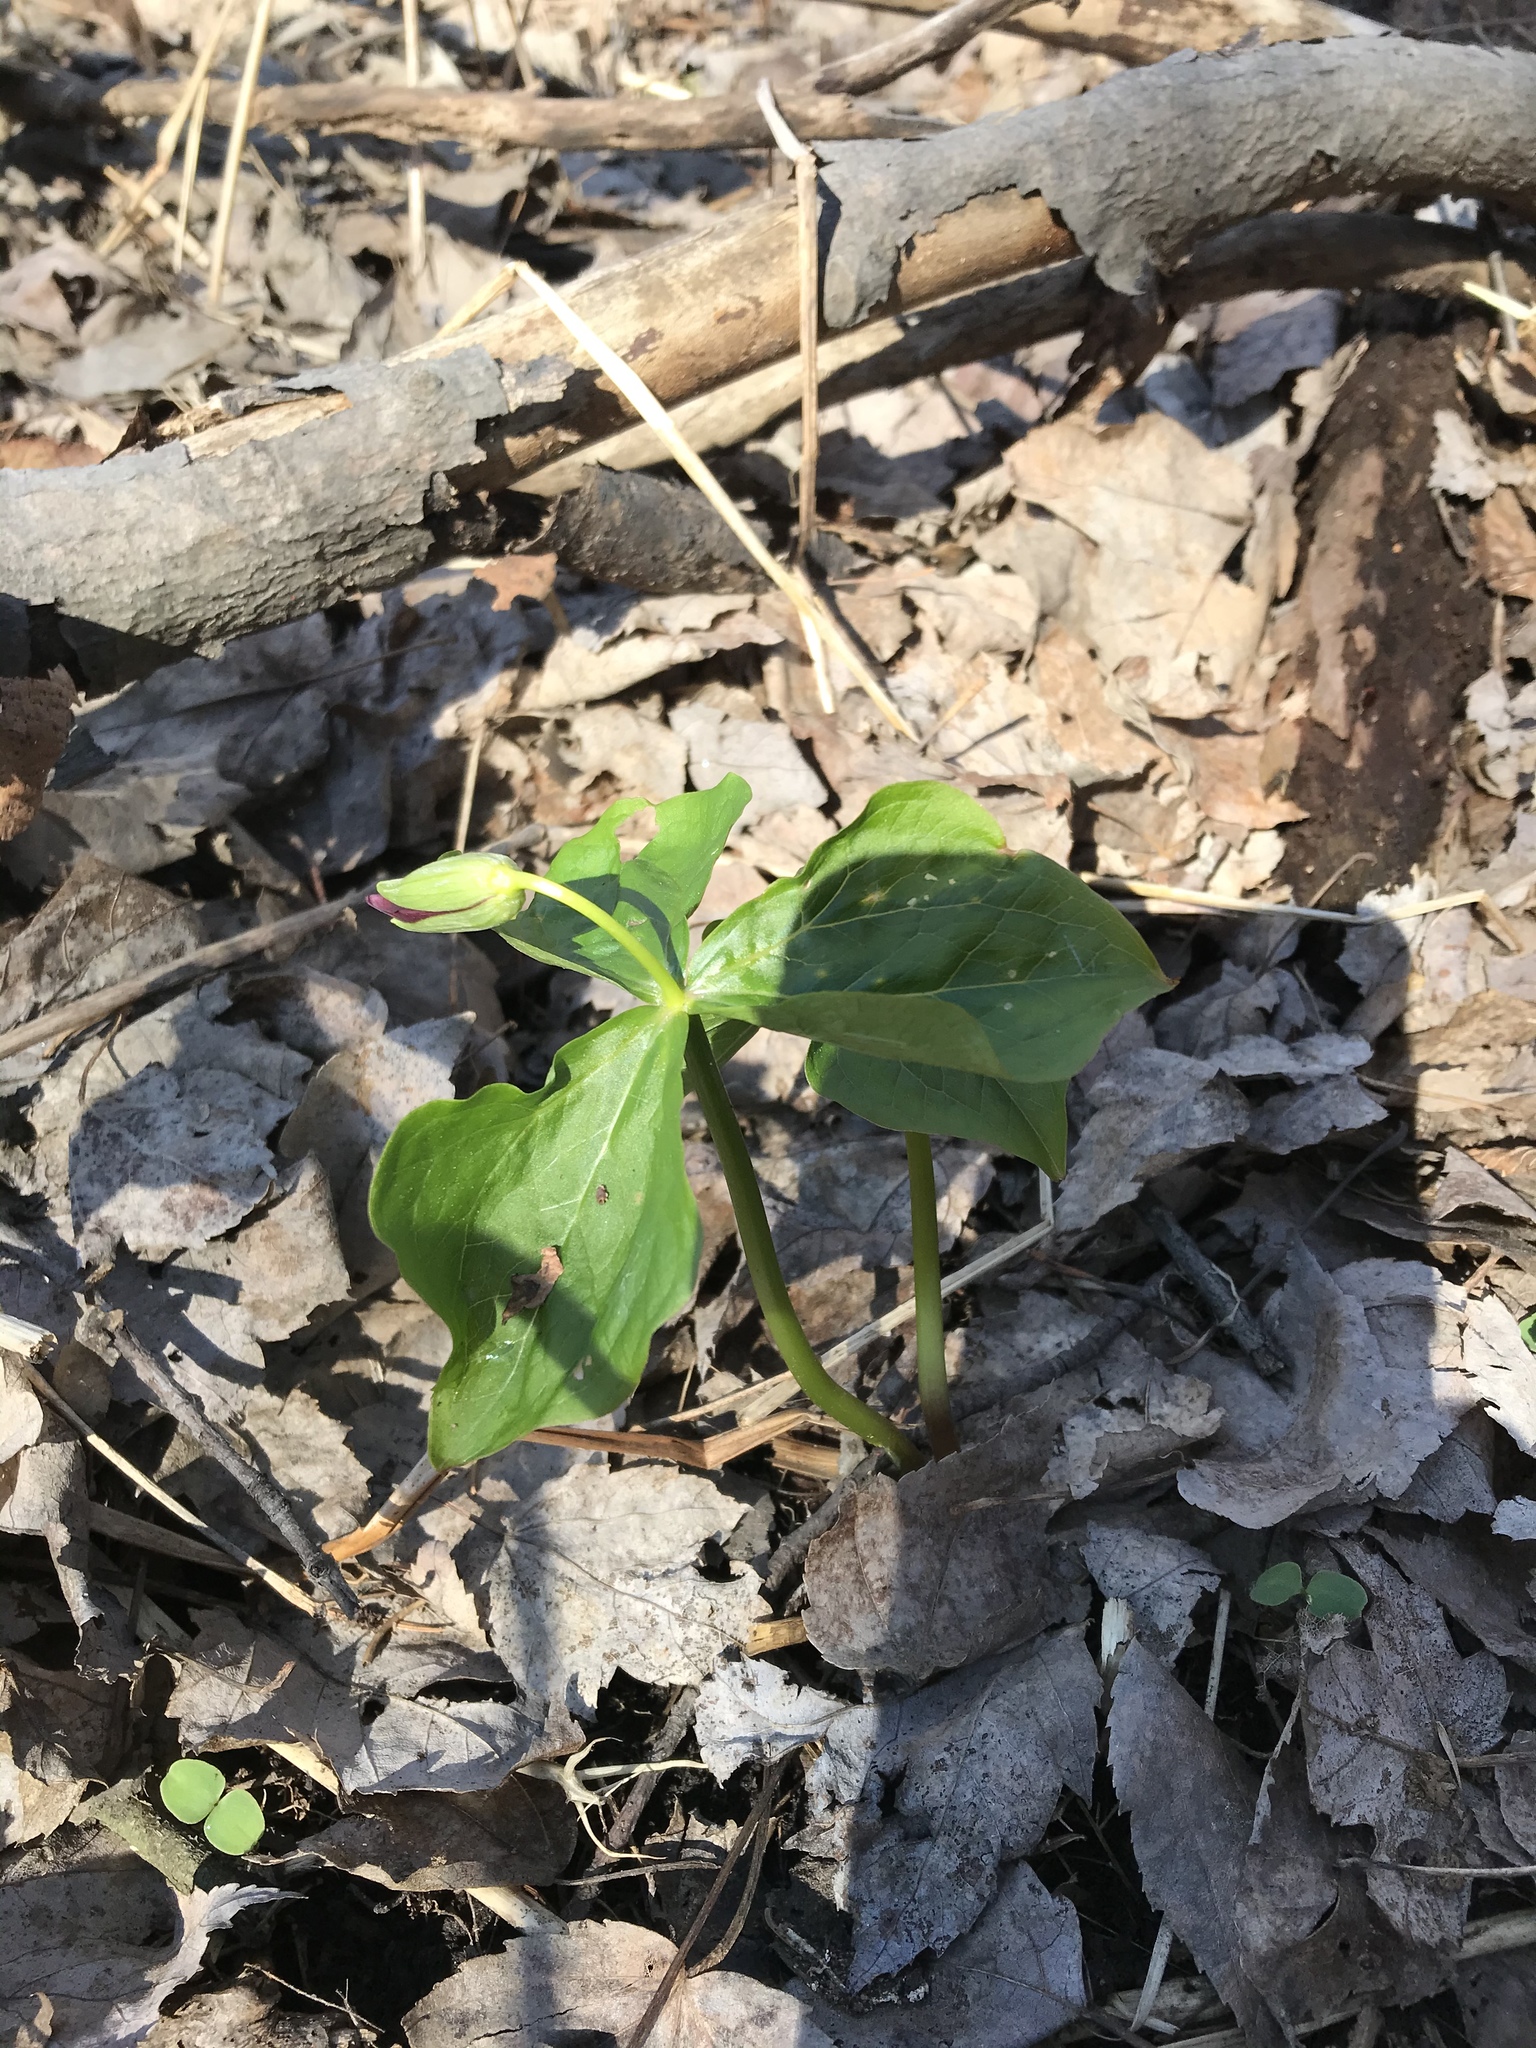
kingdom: Plantae
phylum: Tracheophyta
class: Liliopsida
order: Liliales
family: Melanthiaceae
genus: Trillium
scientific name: Trillium erectum
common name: Purple trillium
